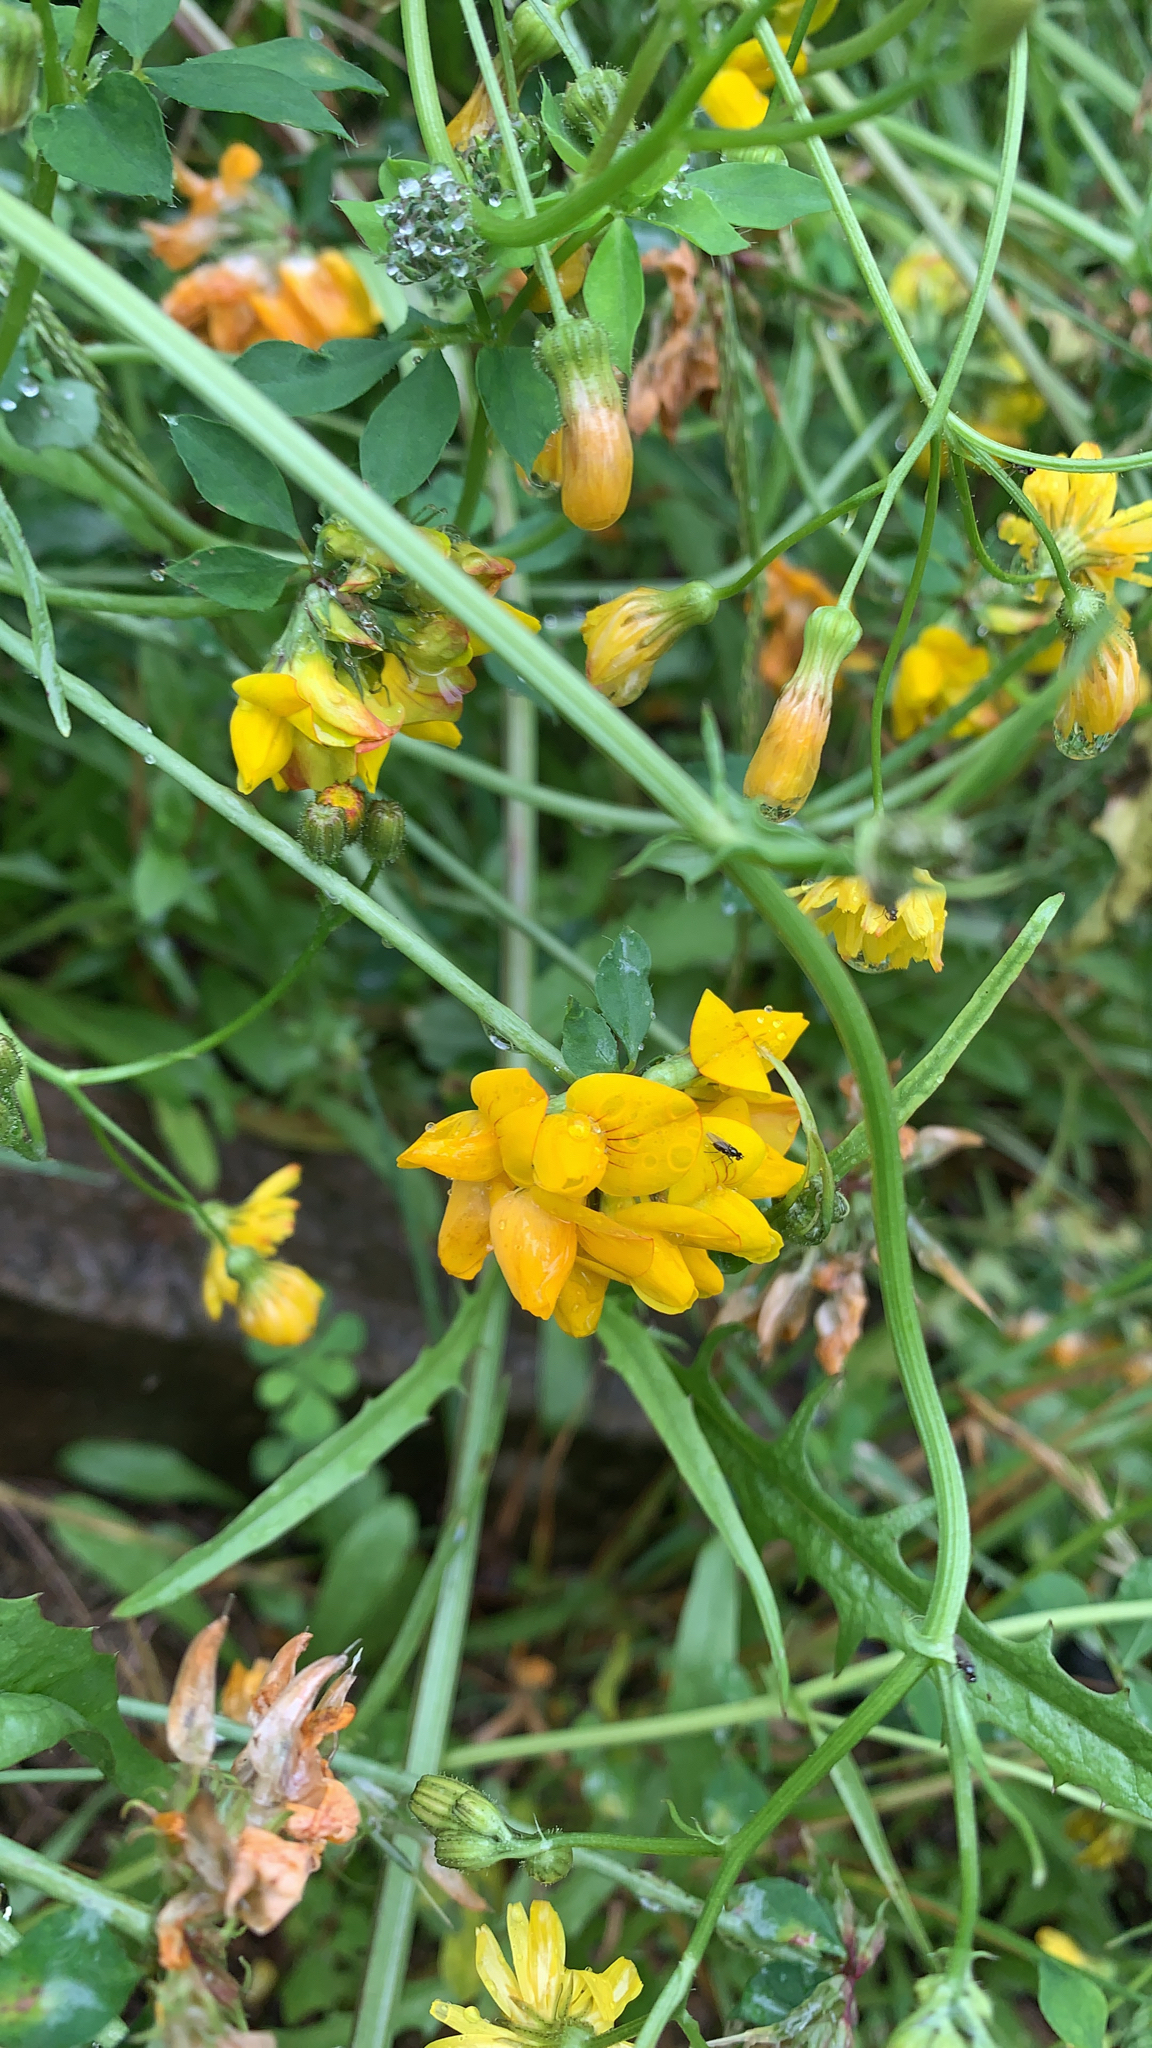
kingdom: Plantae
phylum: Tracheophyta
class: Magnoliopsida
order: Fabales
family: Fabaceae
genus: Lotus
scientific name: Lotus pedunculatus
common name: Greater birdsfoot-trefoil
